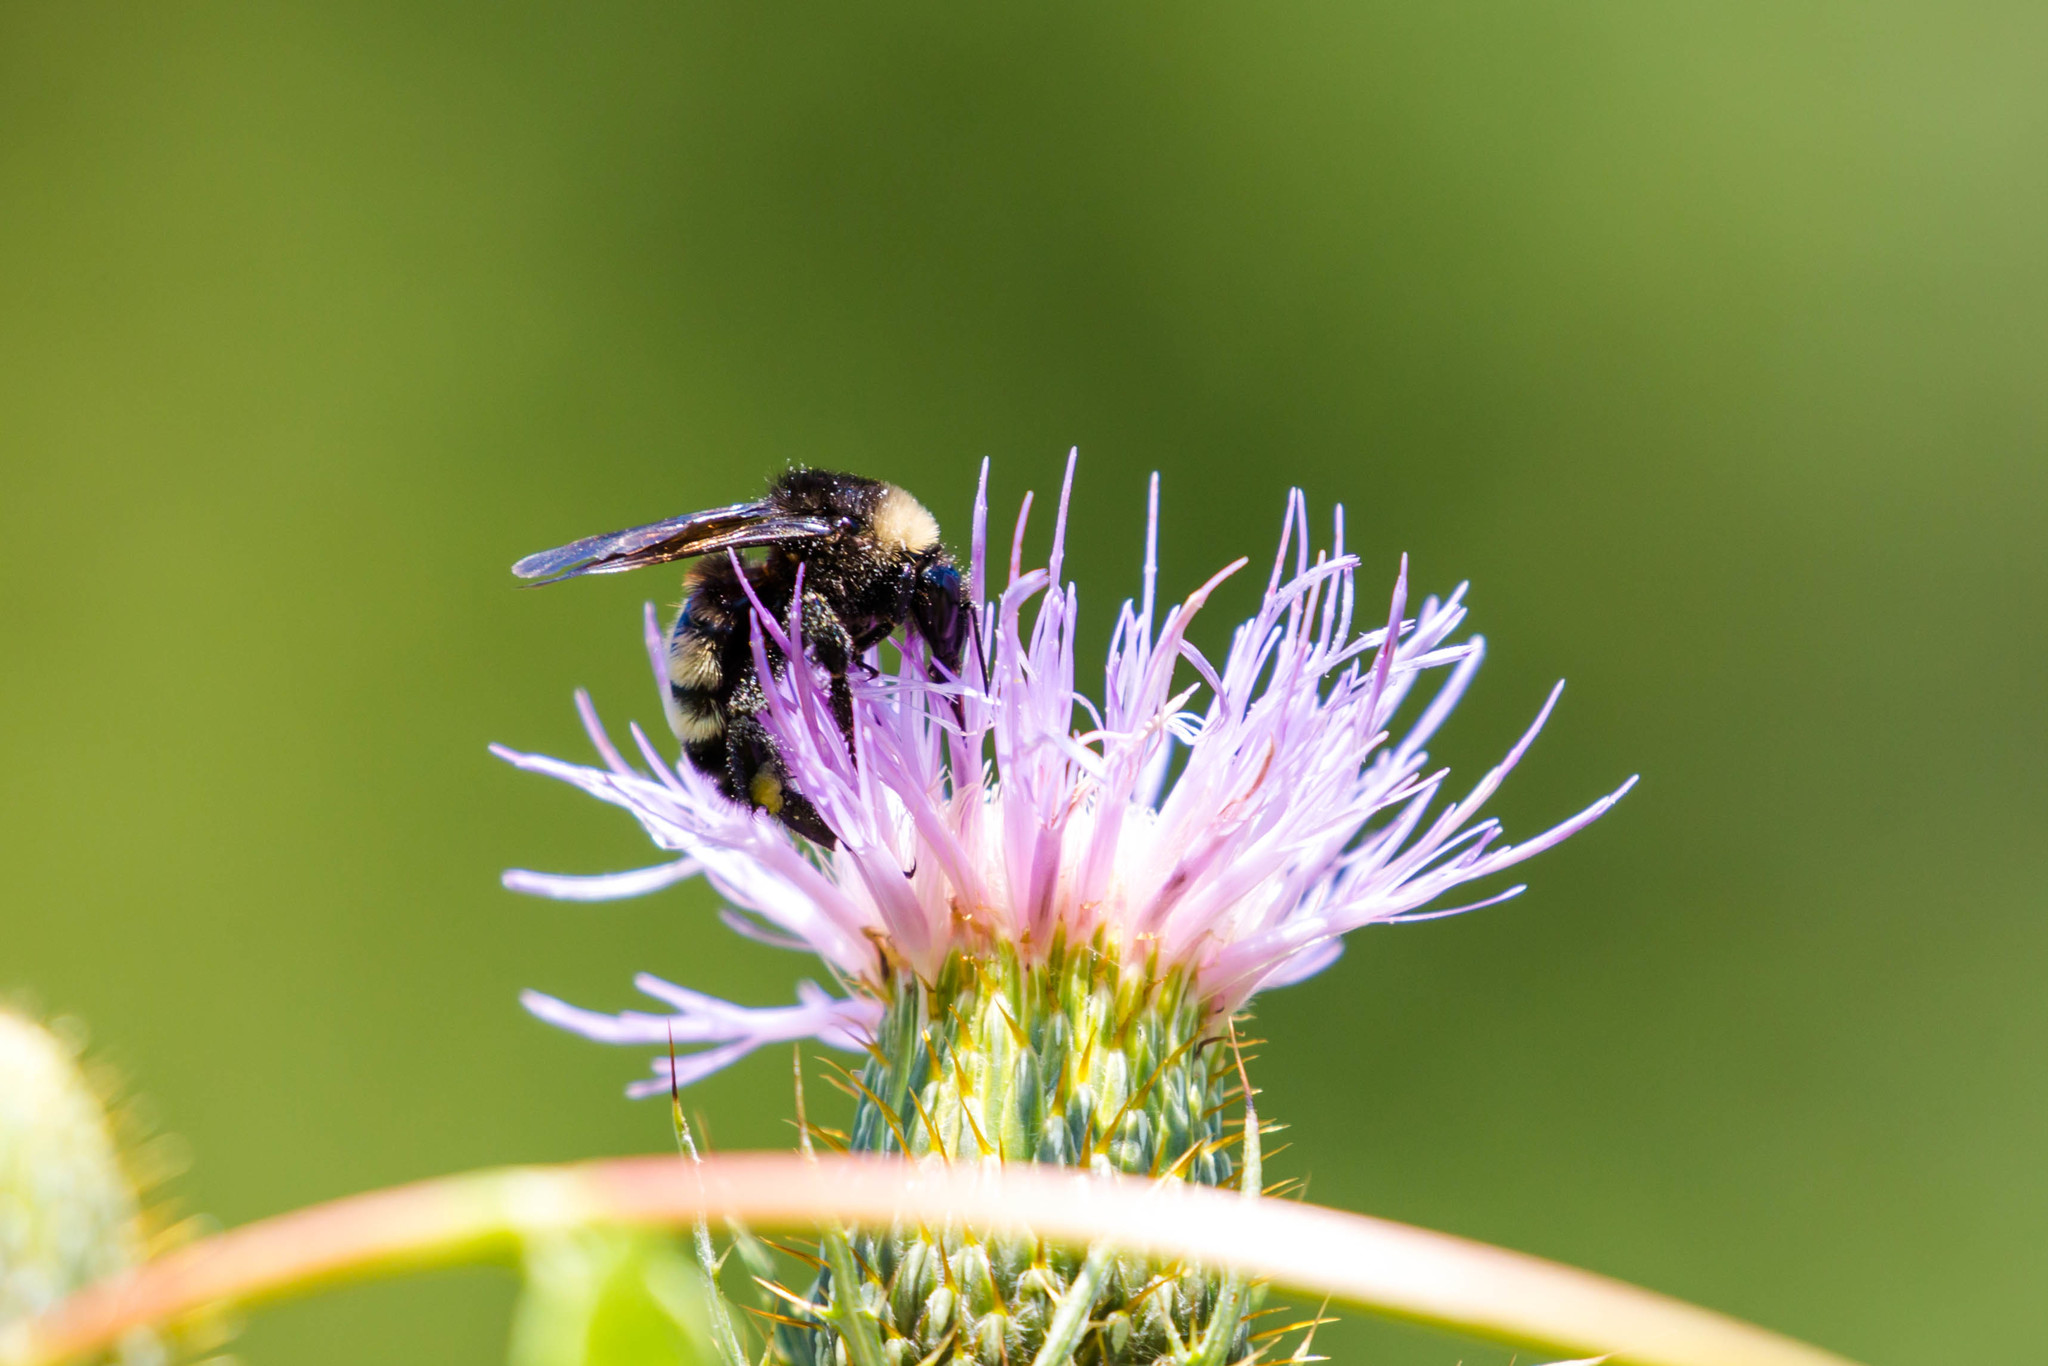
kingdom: Animalia
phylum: Arthropoda
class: Insecta
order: Hymenoptera
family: Apidae
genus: Bombus
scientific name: Bombus pensylvanicus
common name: Bumble bee
